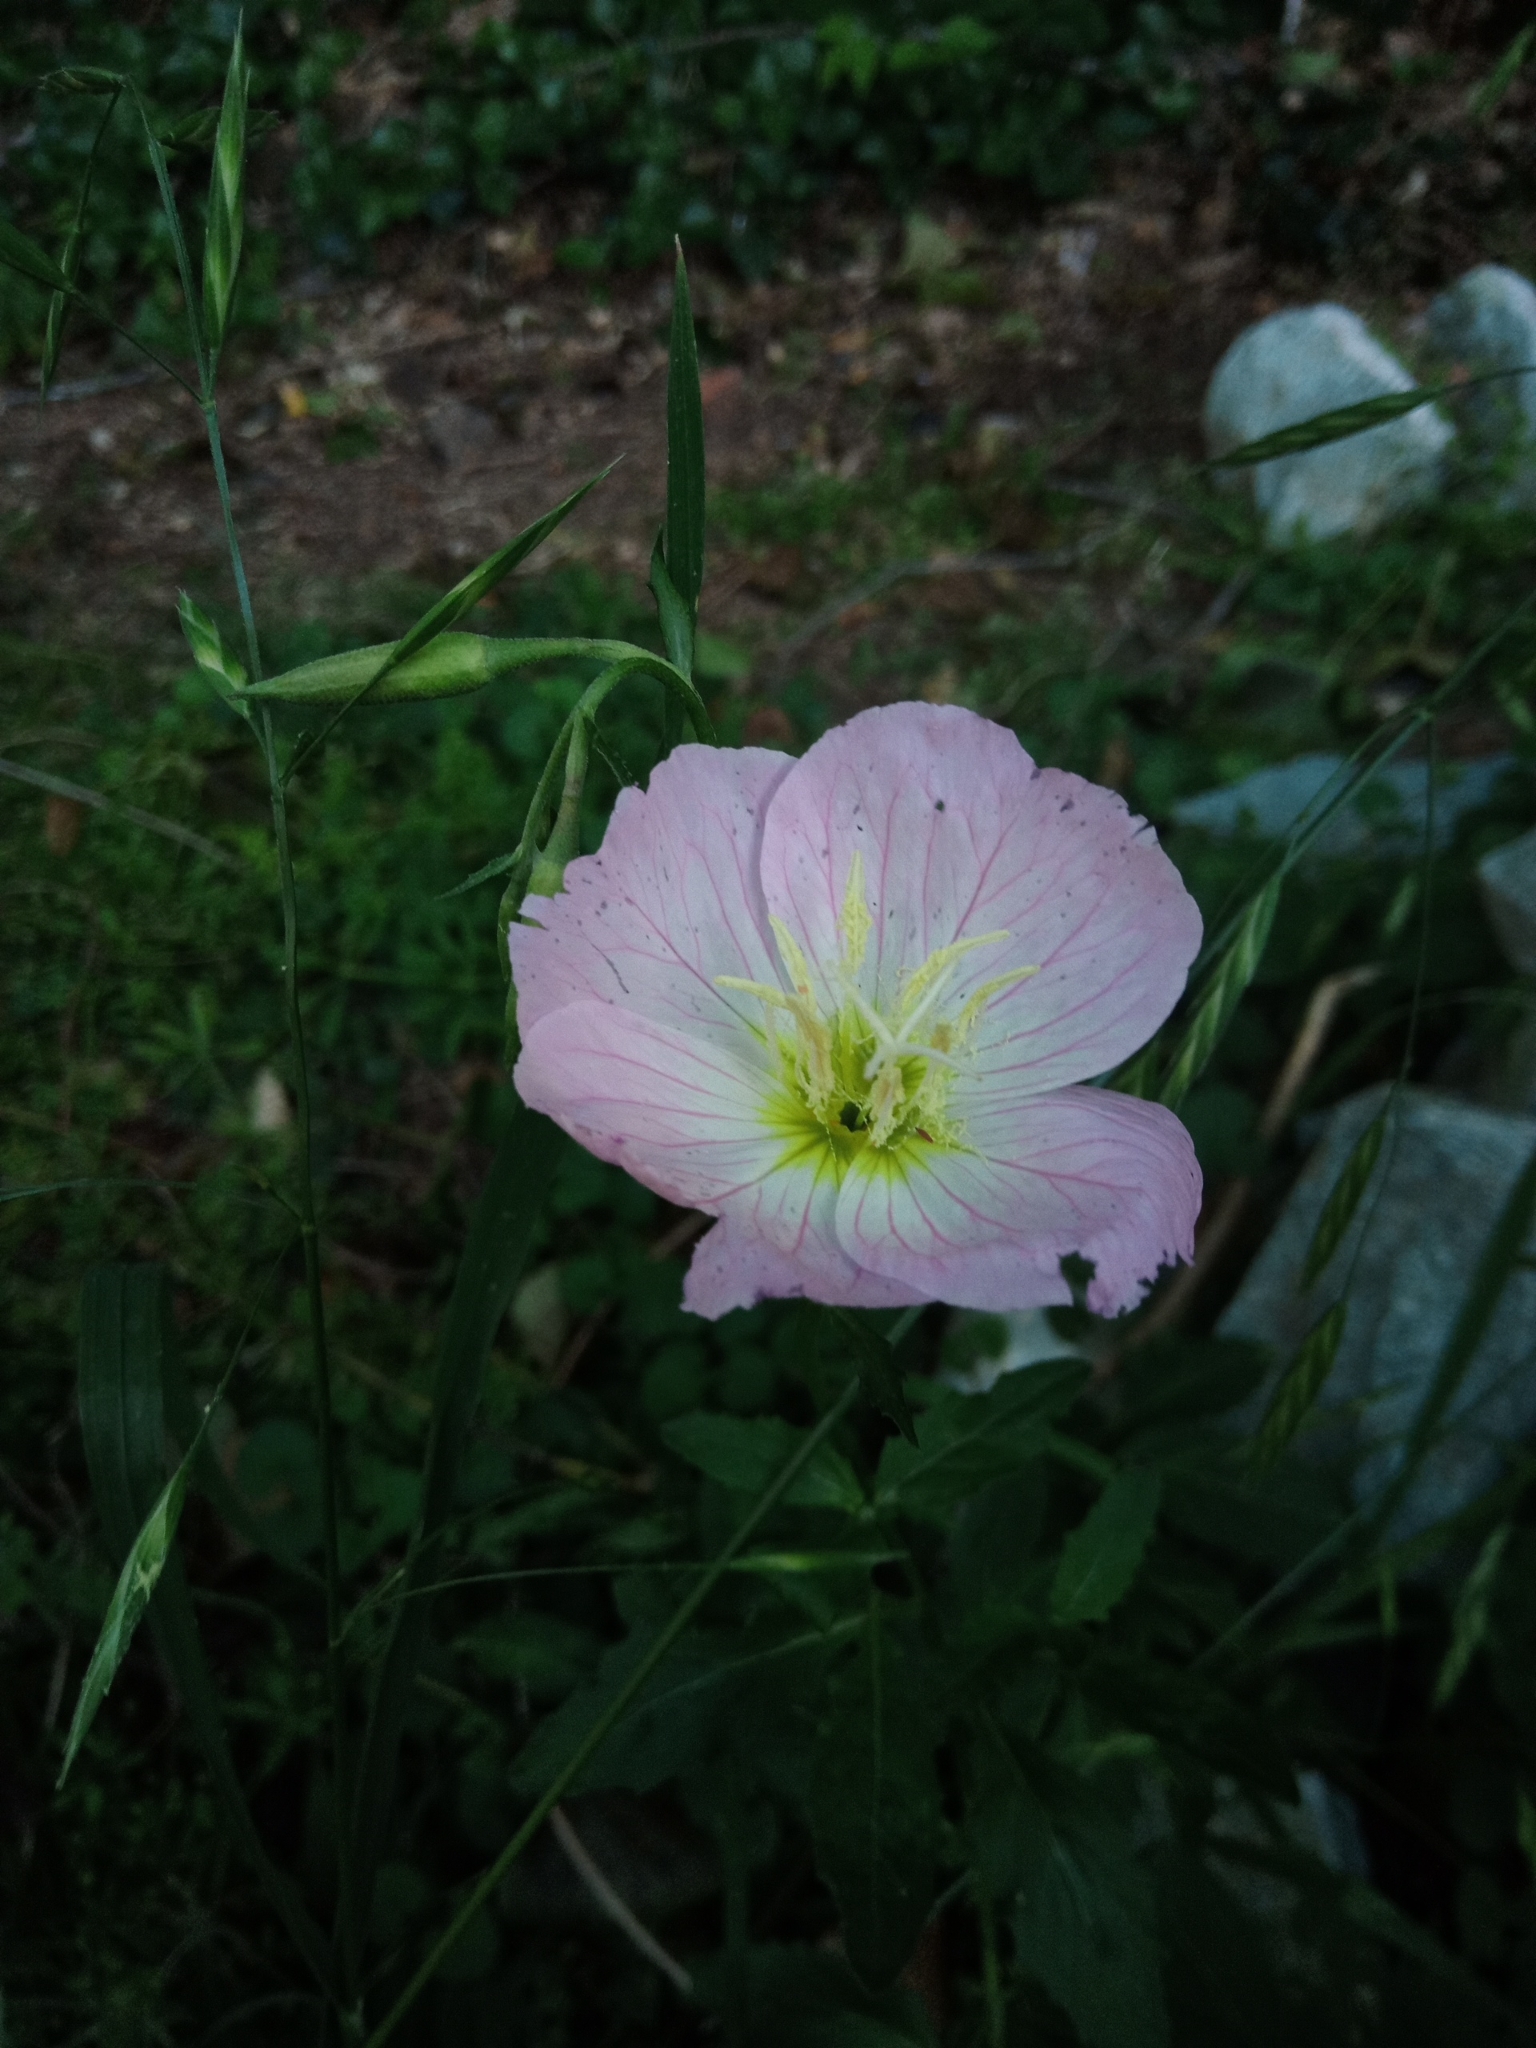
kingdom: Plantae
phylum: Tracheophyta
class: Magnoliopsida
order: Myrtales
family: Onagraceae
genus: Oenothera
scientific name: Oenothera speciosa
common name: White evening-primrose
